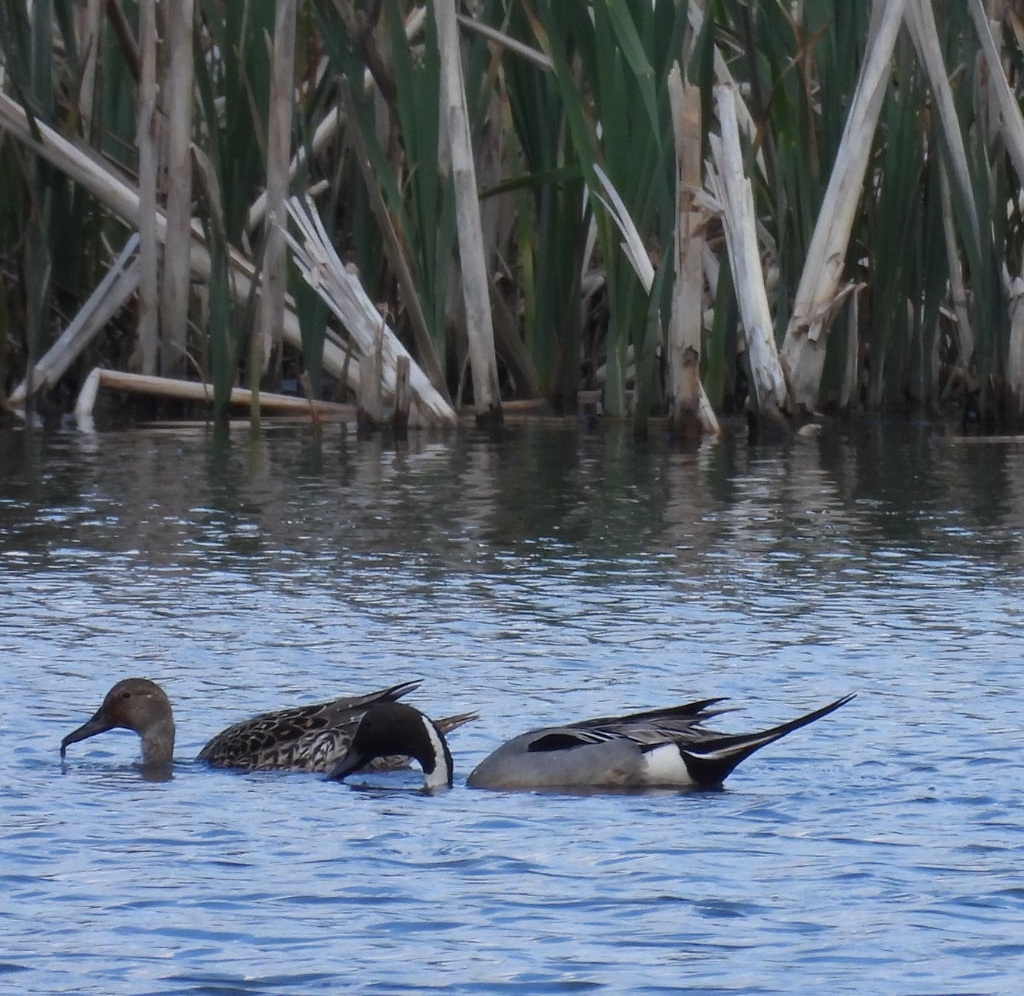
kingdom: Animalia
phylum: Chordata
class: Aves
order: Anseriformes
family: Anatidae
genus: Anas
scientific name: Anas acuta
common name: Northern pintail
